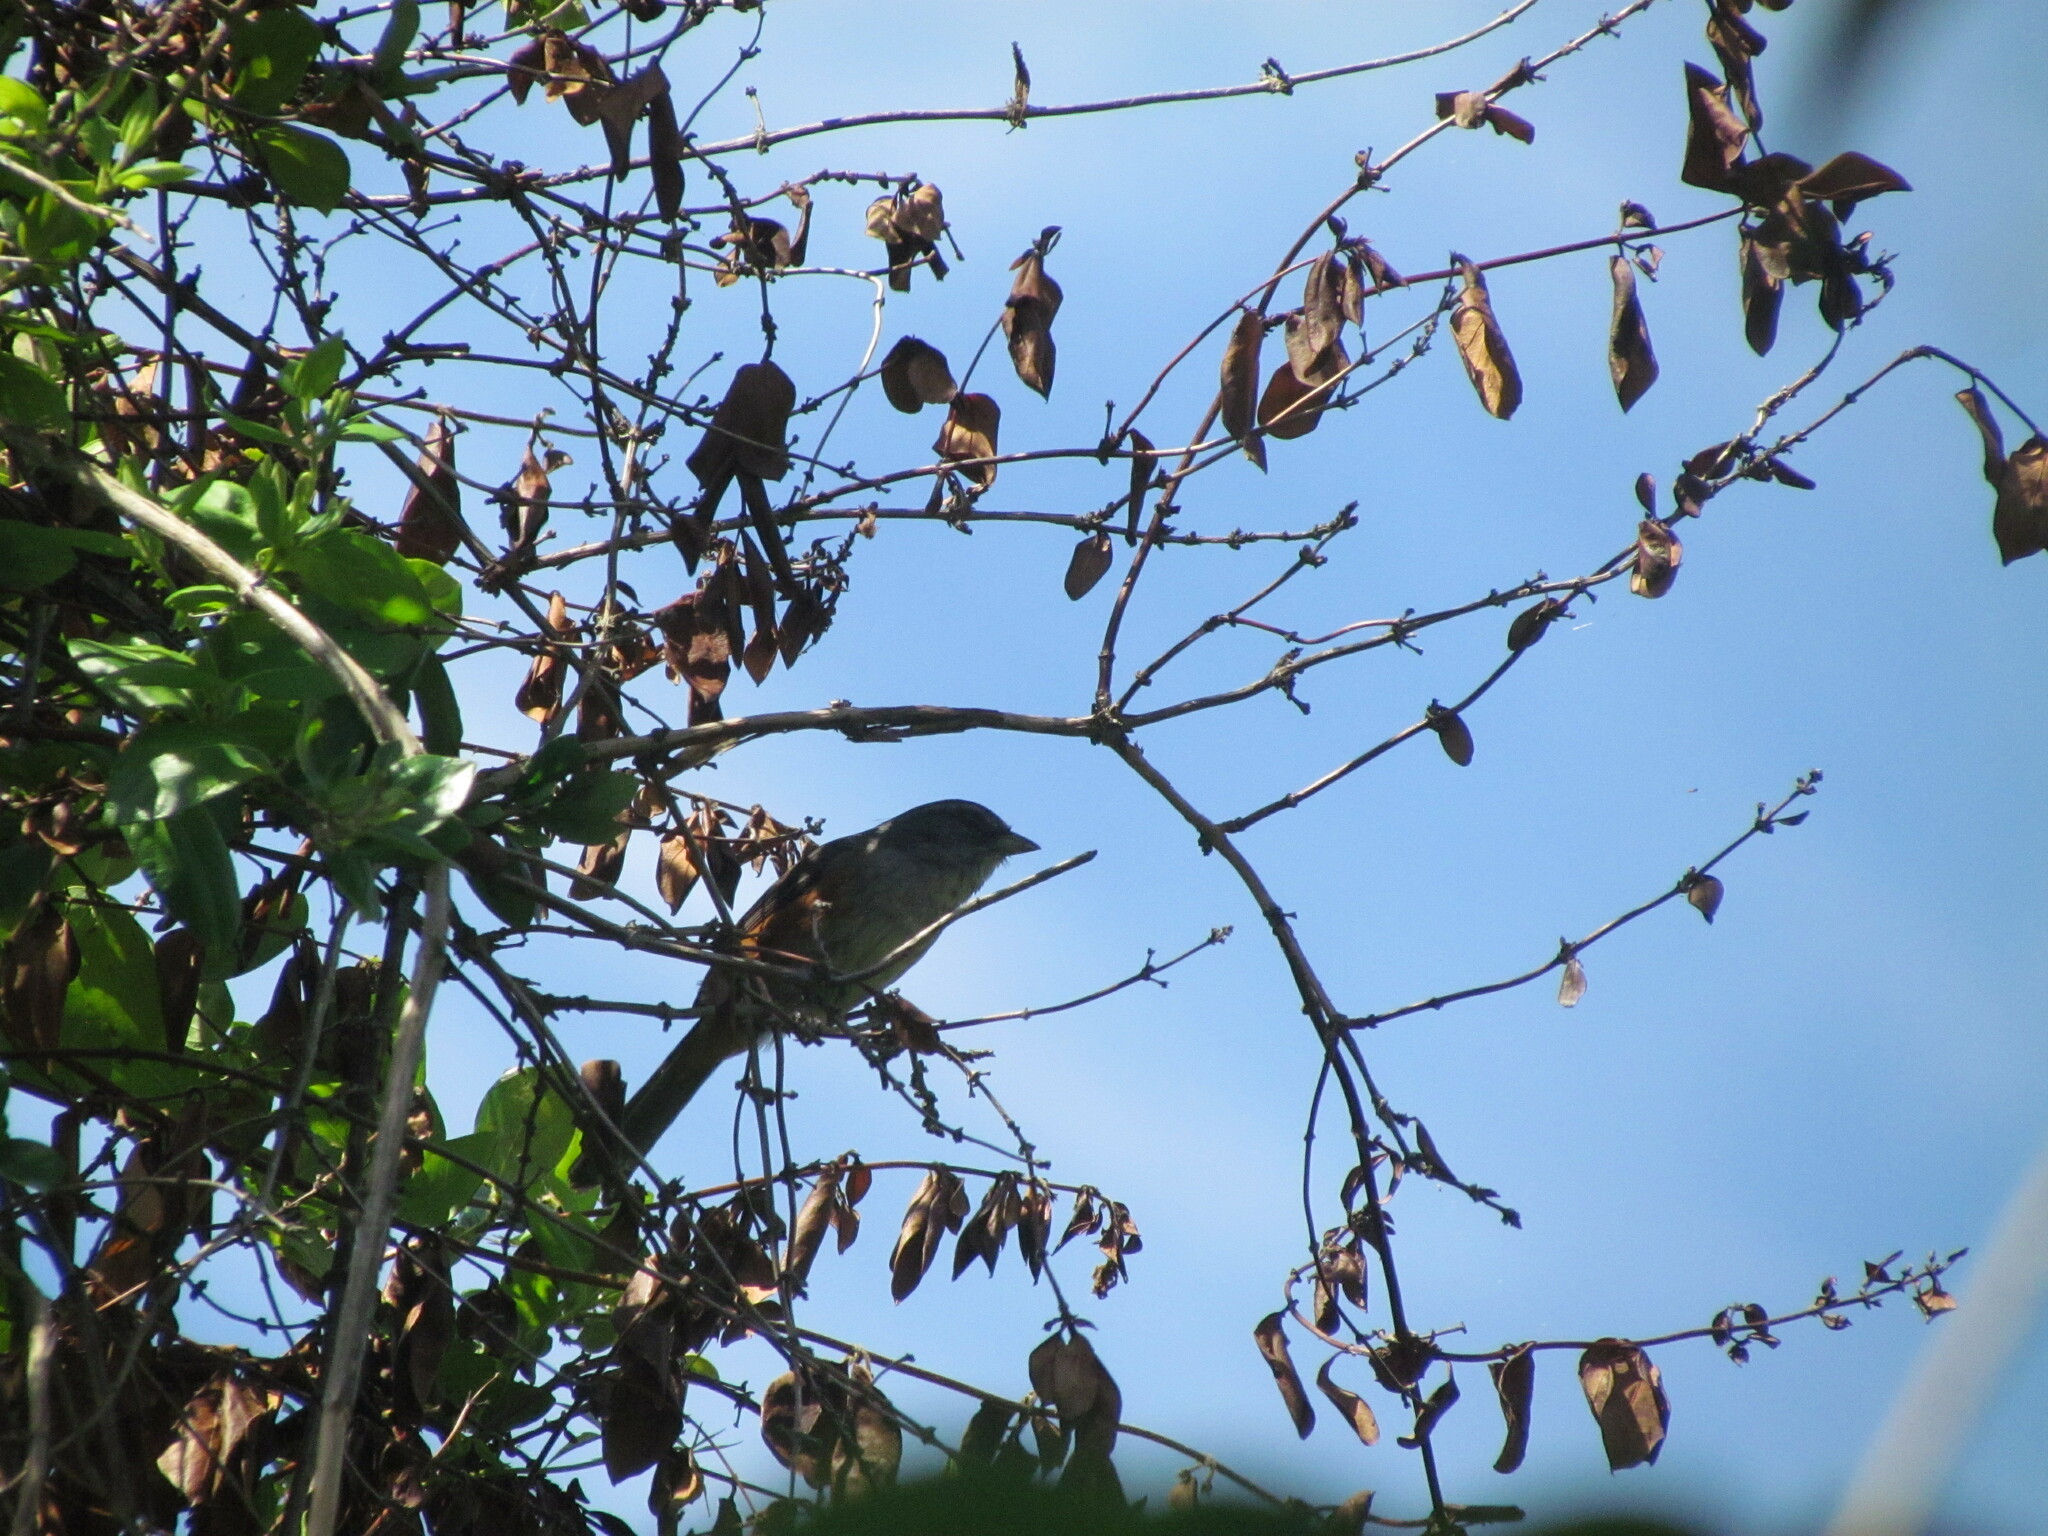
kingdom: Animalia
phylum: Chordata
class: Aves
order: Passeriformes
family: Thraupidae
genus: Microspingus
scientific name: Microspingus cabanisi
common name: Gray-throated warbling-finch
